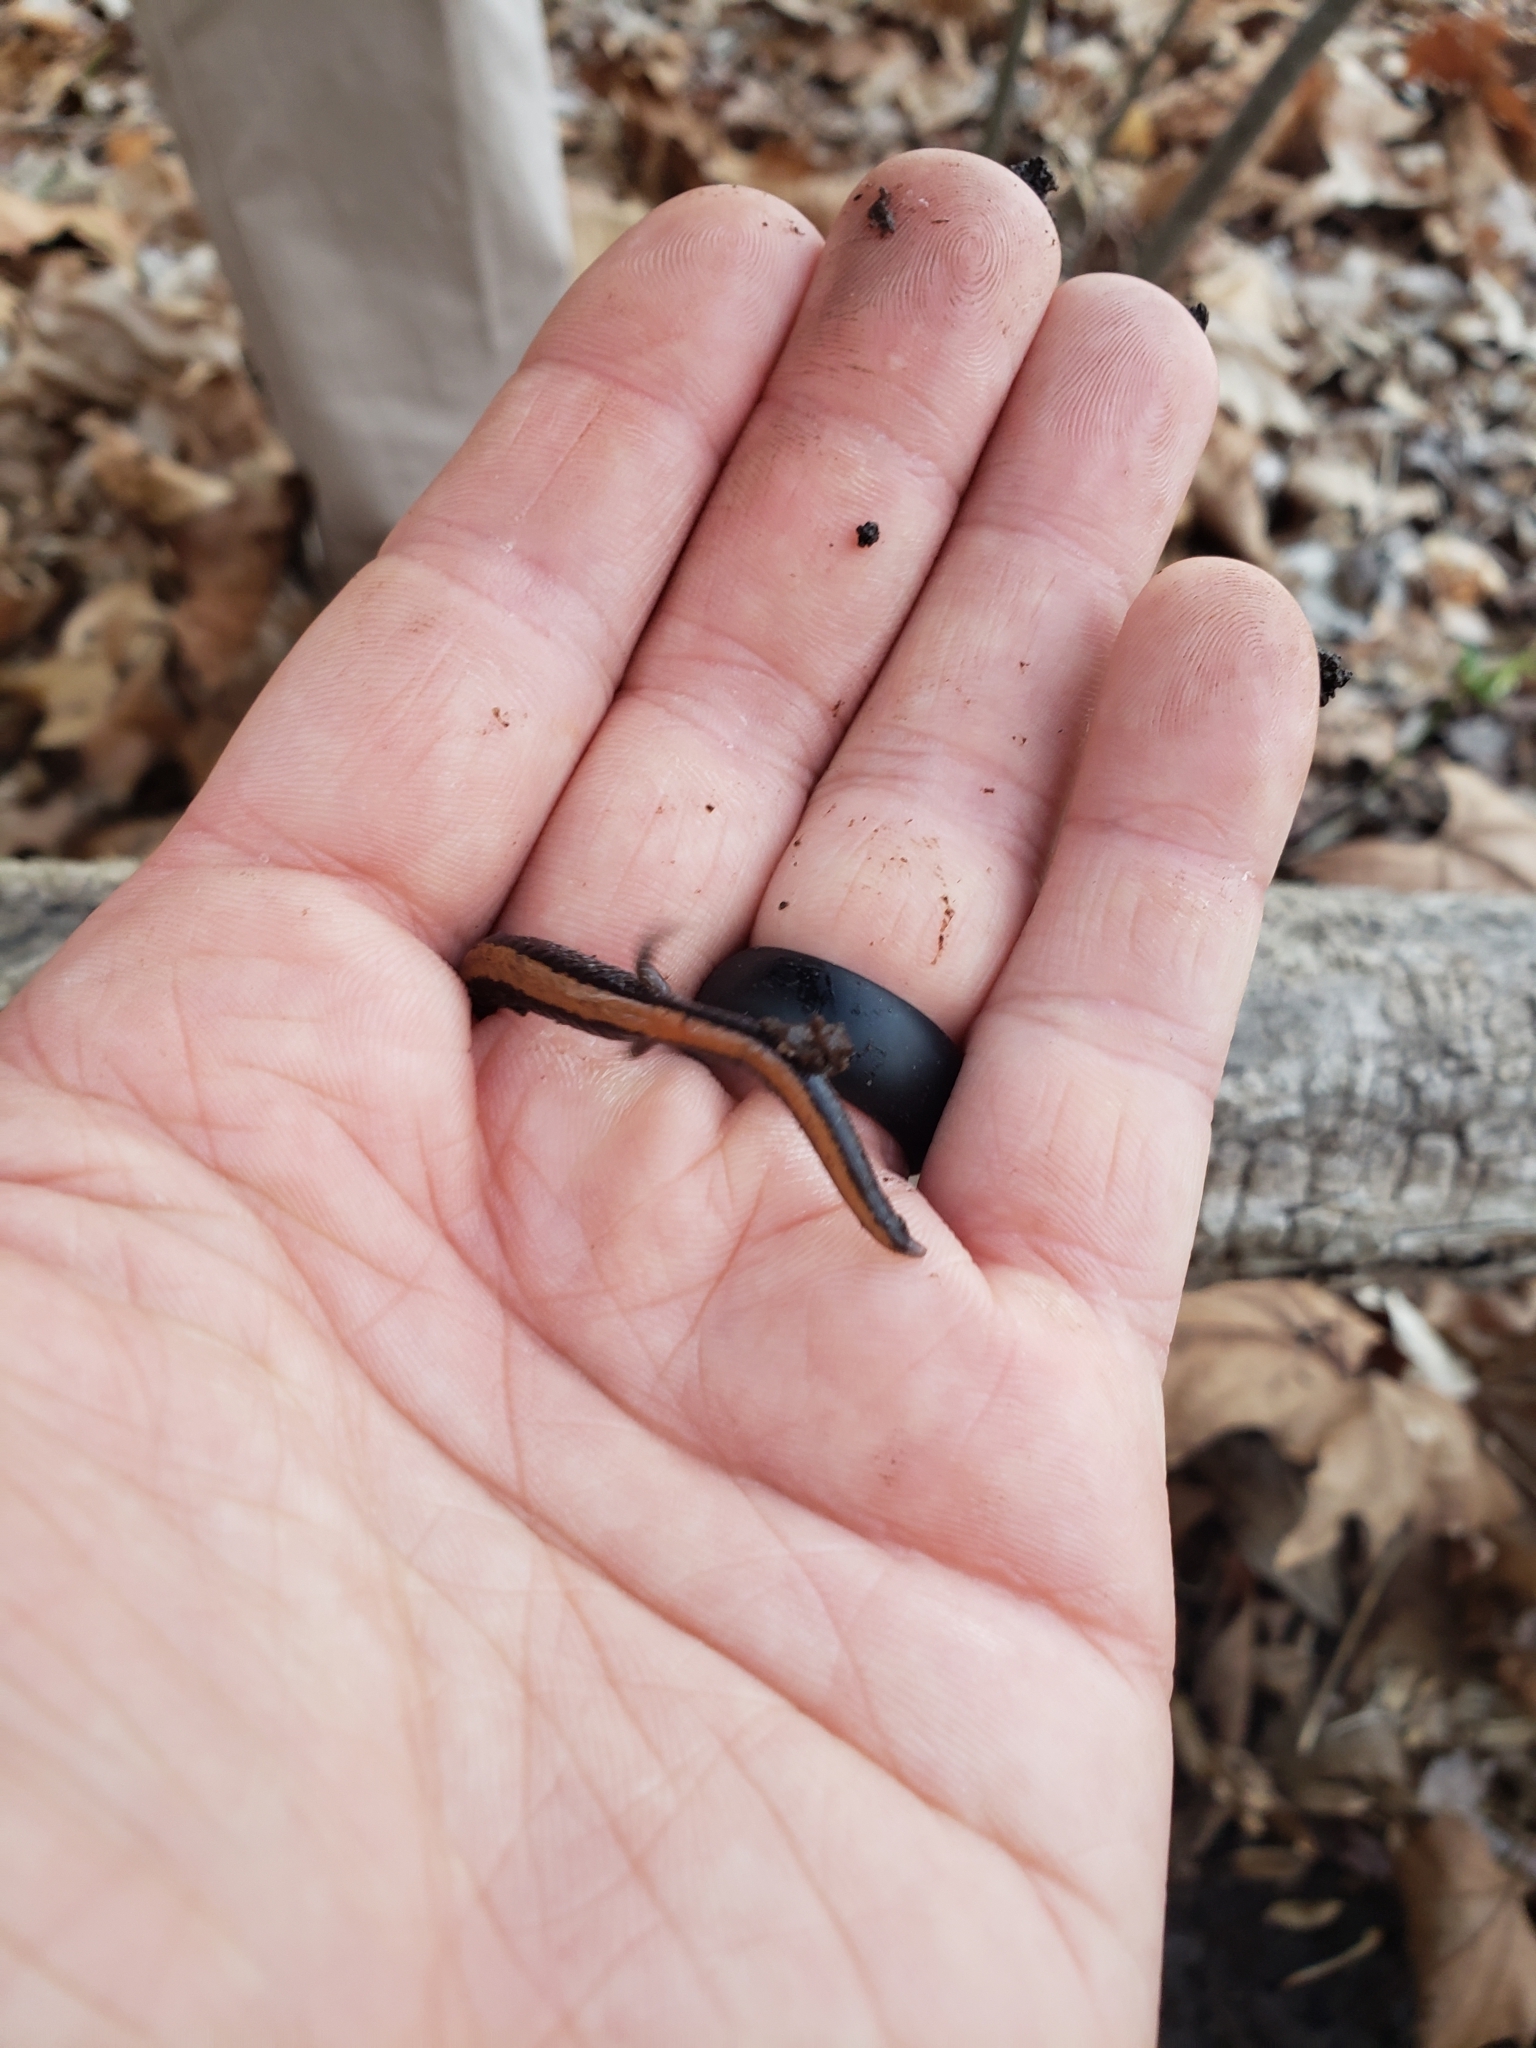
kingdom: Animalia
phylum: Chordata
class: Amphibia
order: Caudata
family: Plethodontidae
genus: Plethodon
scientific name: Plethodon cinereus
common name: Redback salamander
